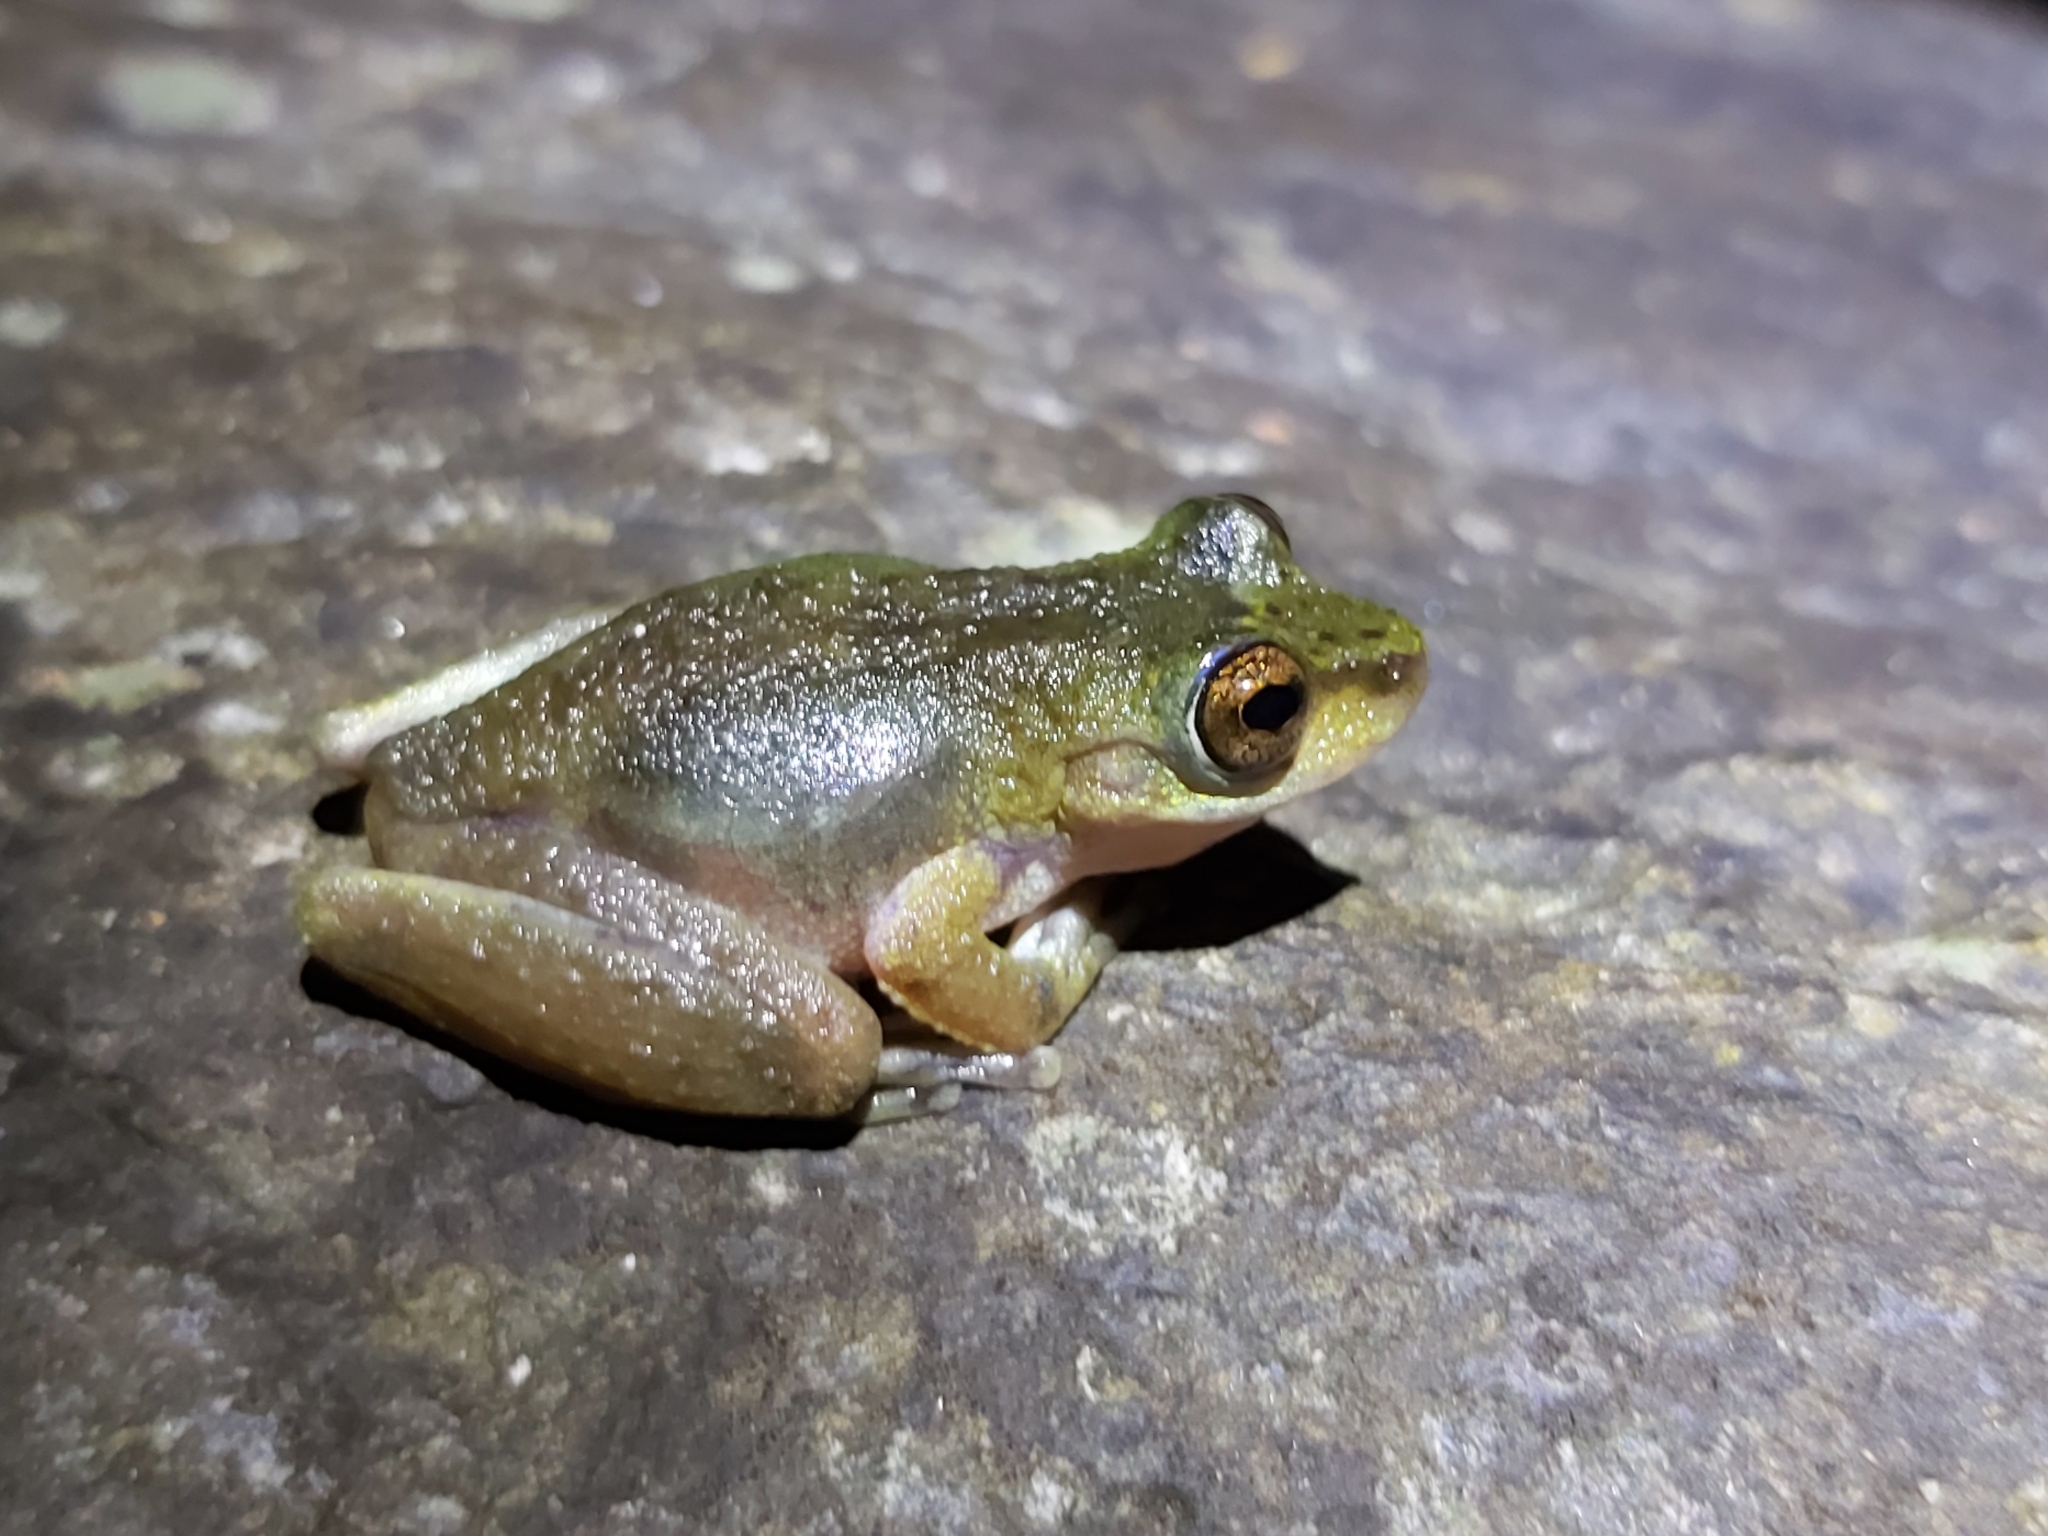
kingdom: Animalia
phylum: Chordata
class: Amphibia
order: Anura
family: Pelodryadidae
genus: Ranoidea
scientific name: Ranoidea rheocola
